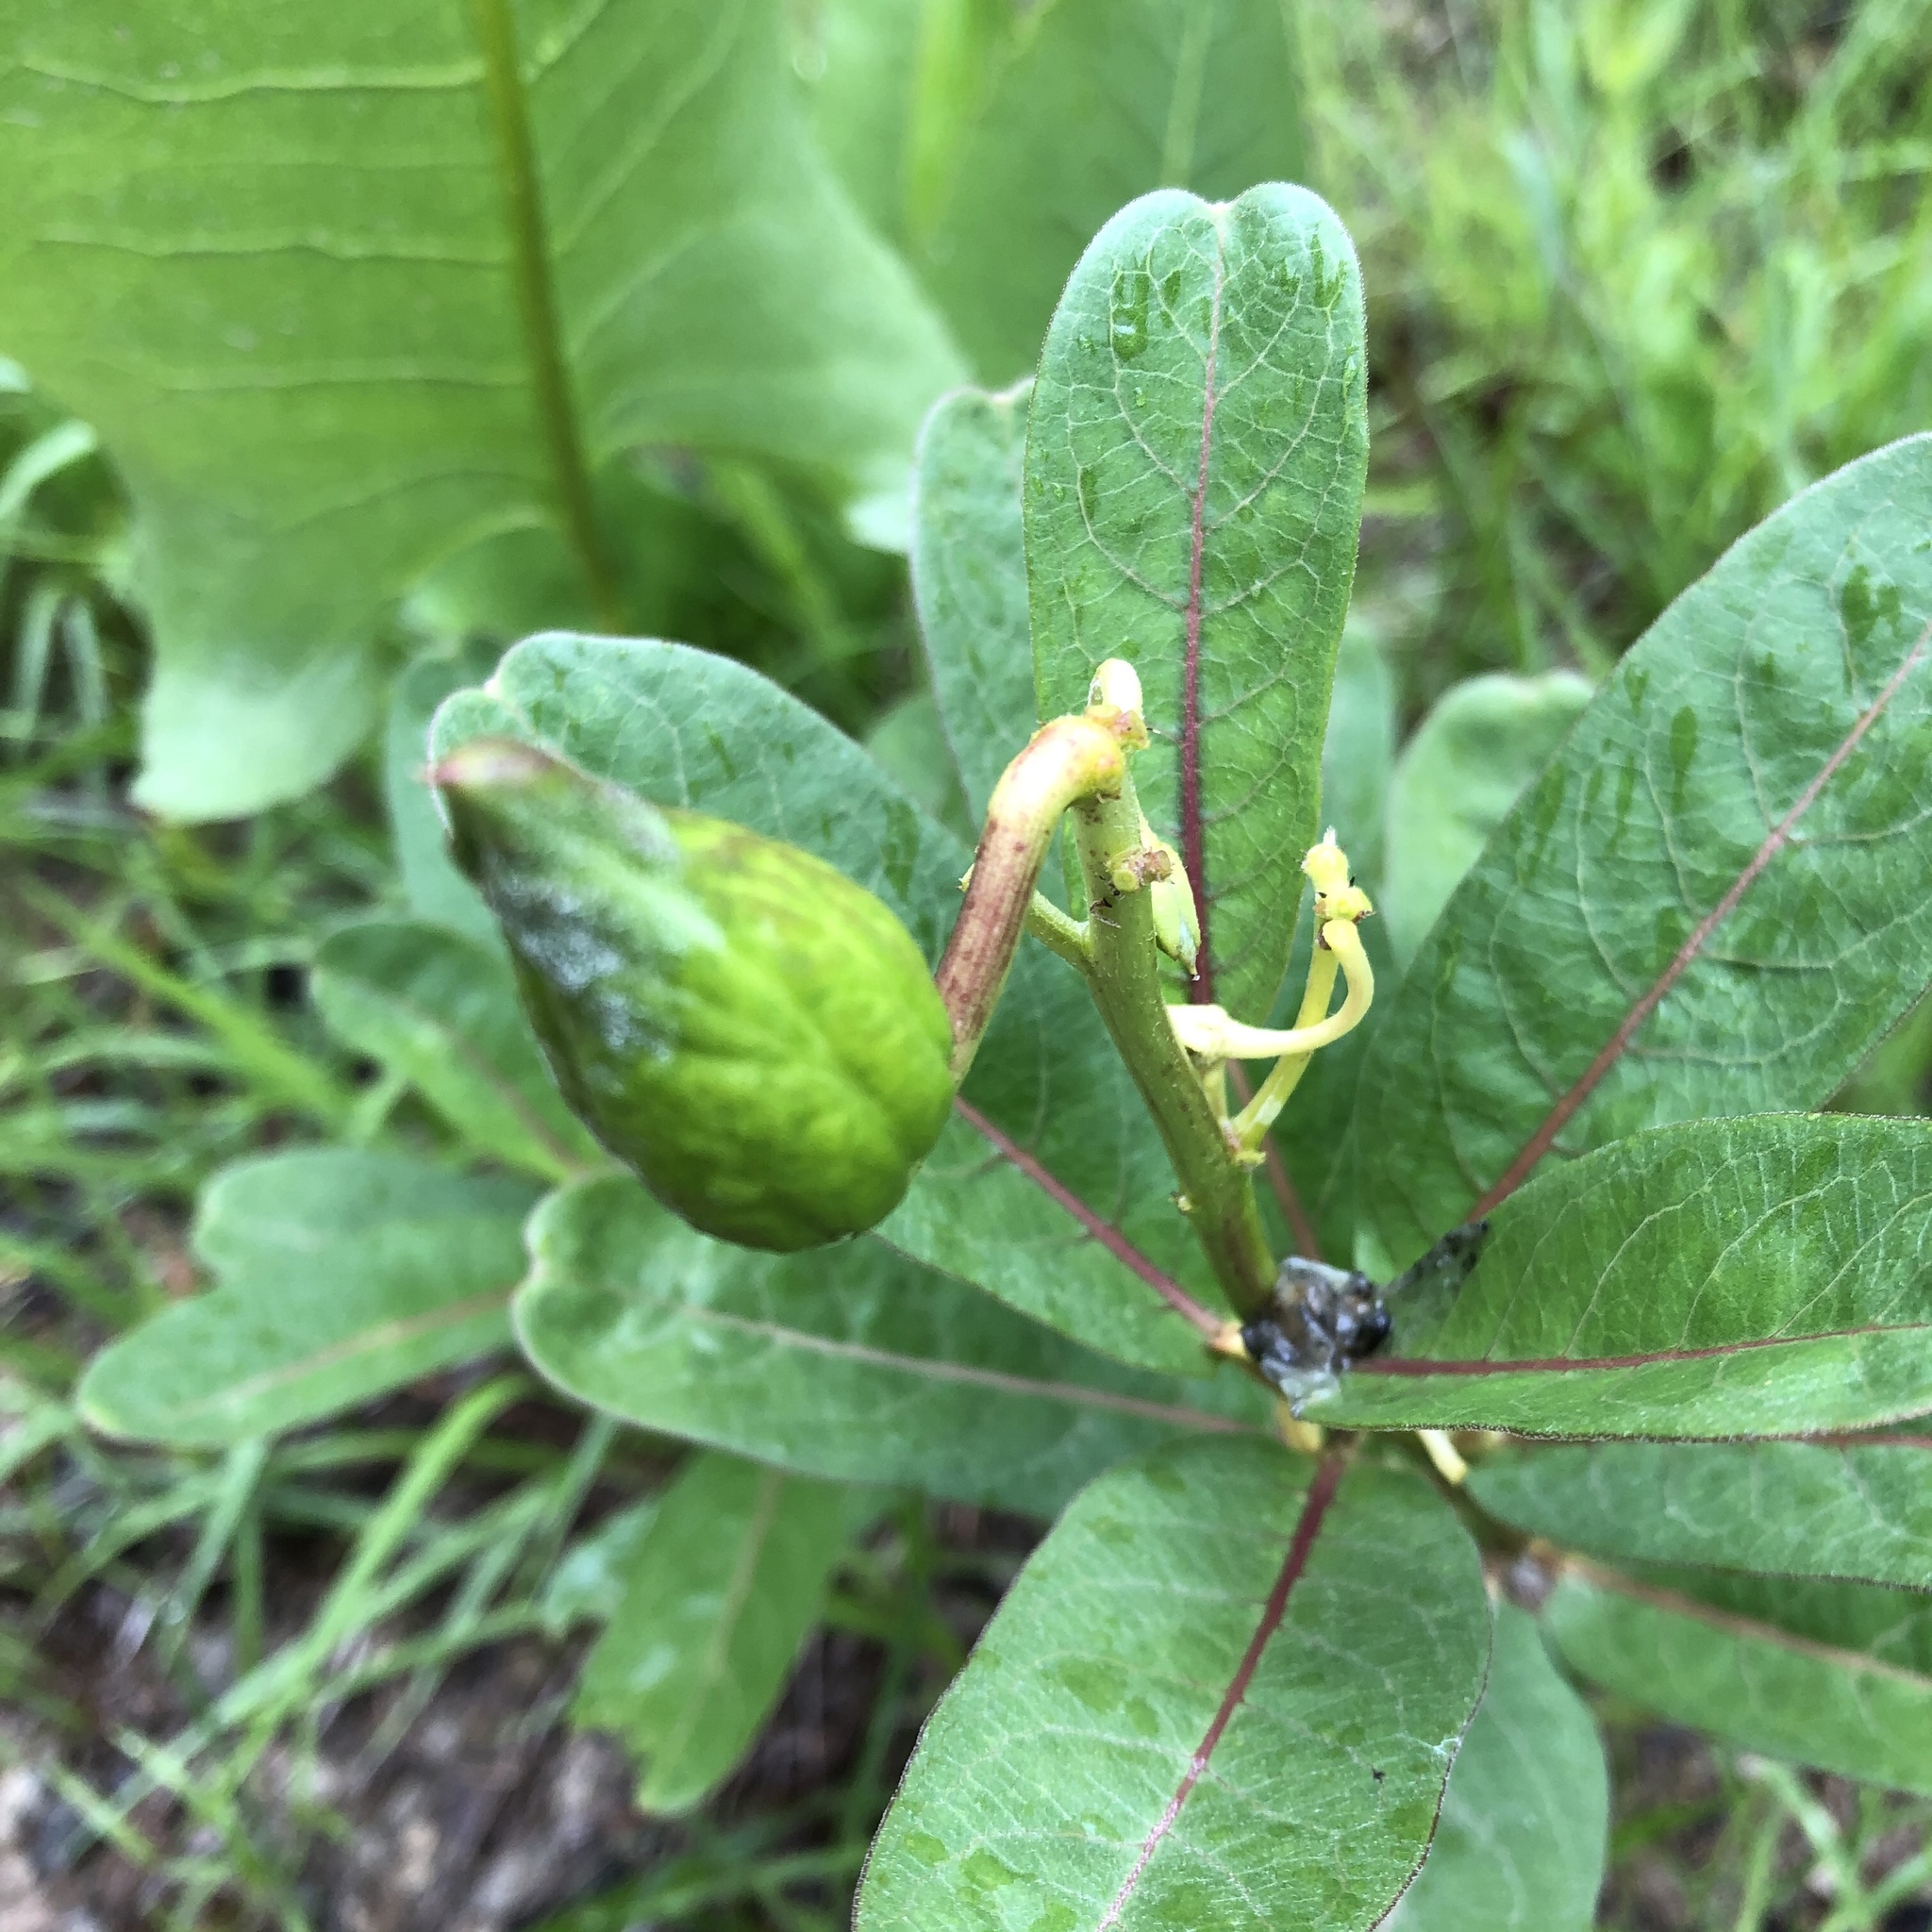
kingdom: Plantae
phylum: Tracheophyta
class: Magnoliopsida
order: Gentianales
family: Apocynaceae
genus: Asclepias
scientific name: Asclepias viridis
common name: Antelope-horns
